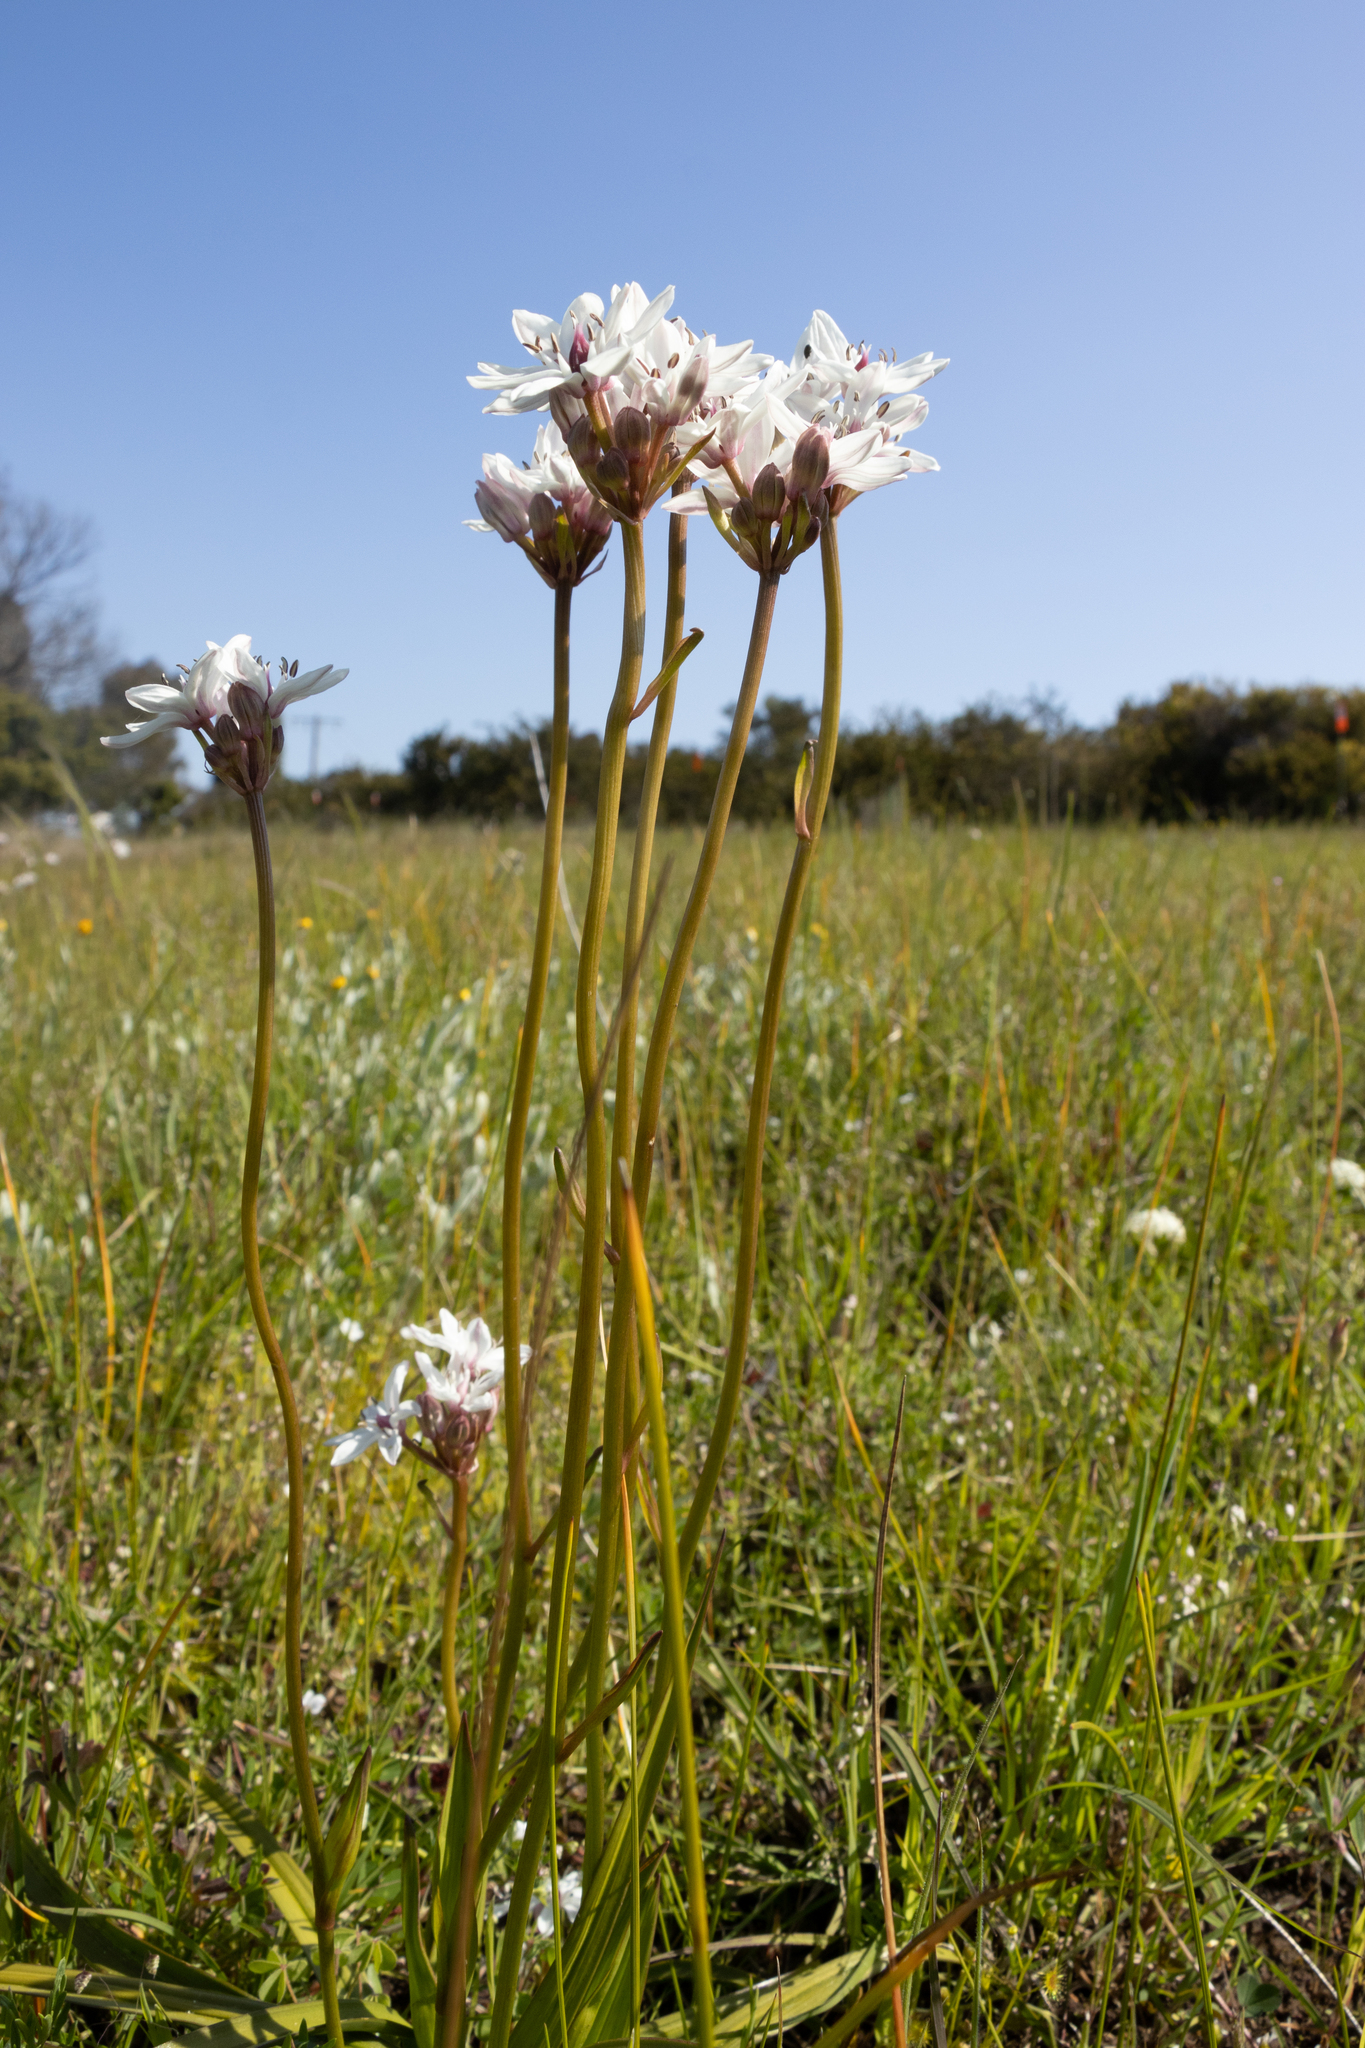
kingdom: Plantae
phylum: Tracheophyta
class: Liliopsida
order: Liliales
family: Colchicaceae
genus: Burchardia
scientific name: Burchardia umbellata
